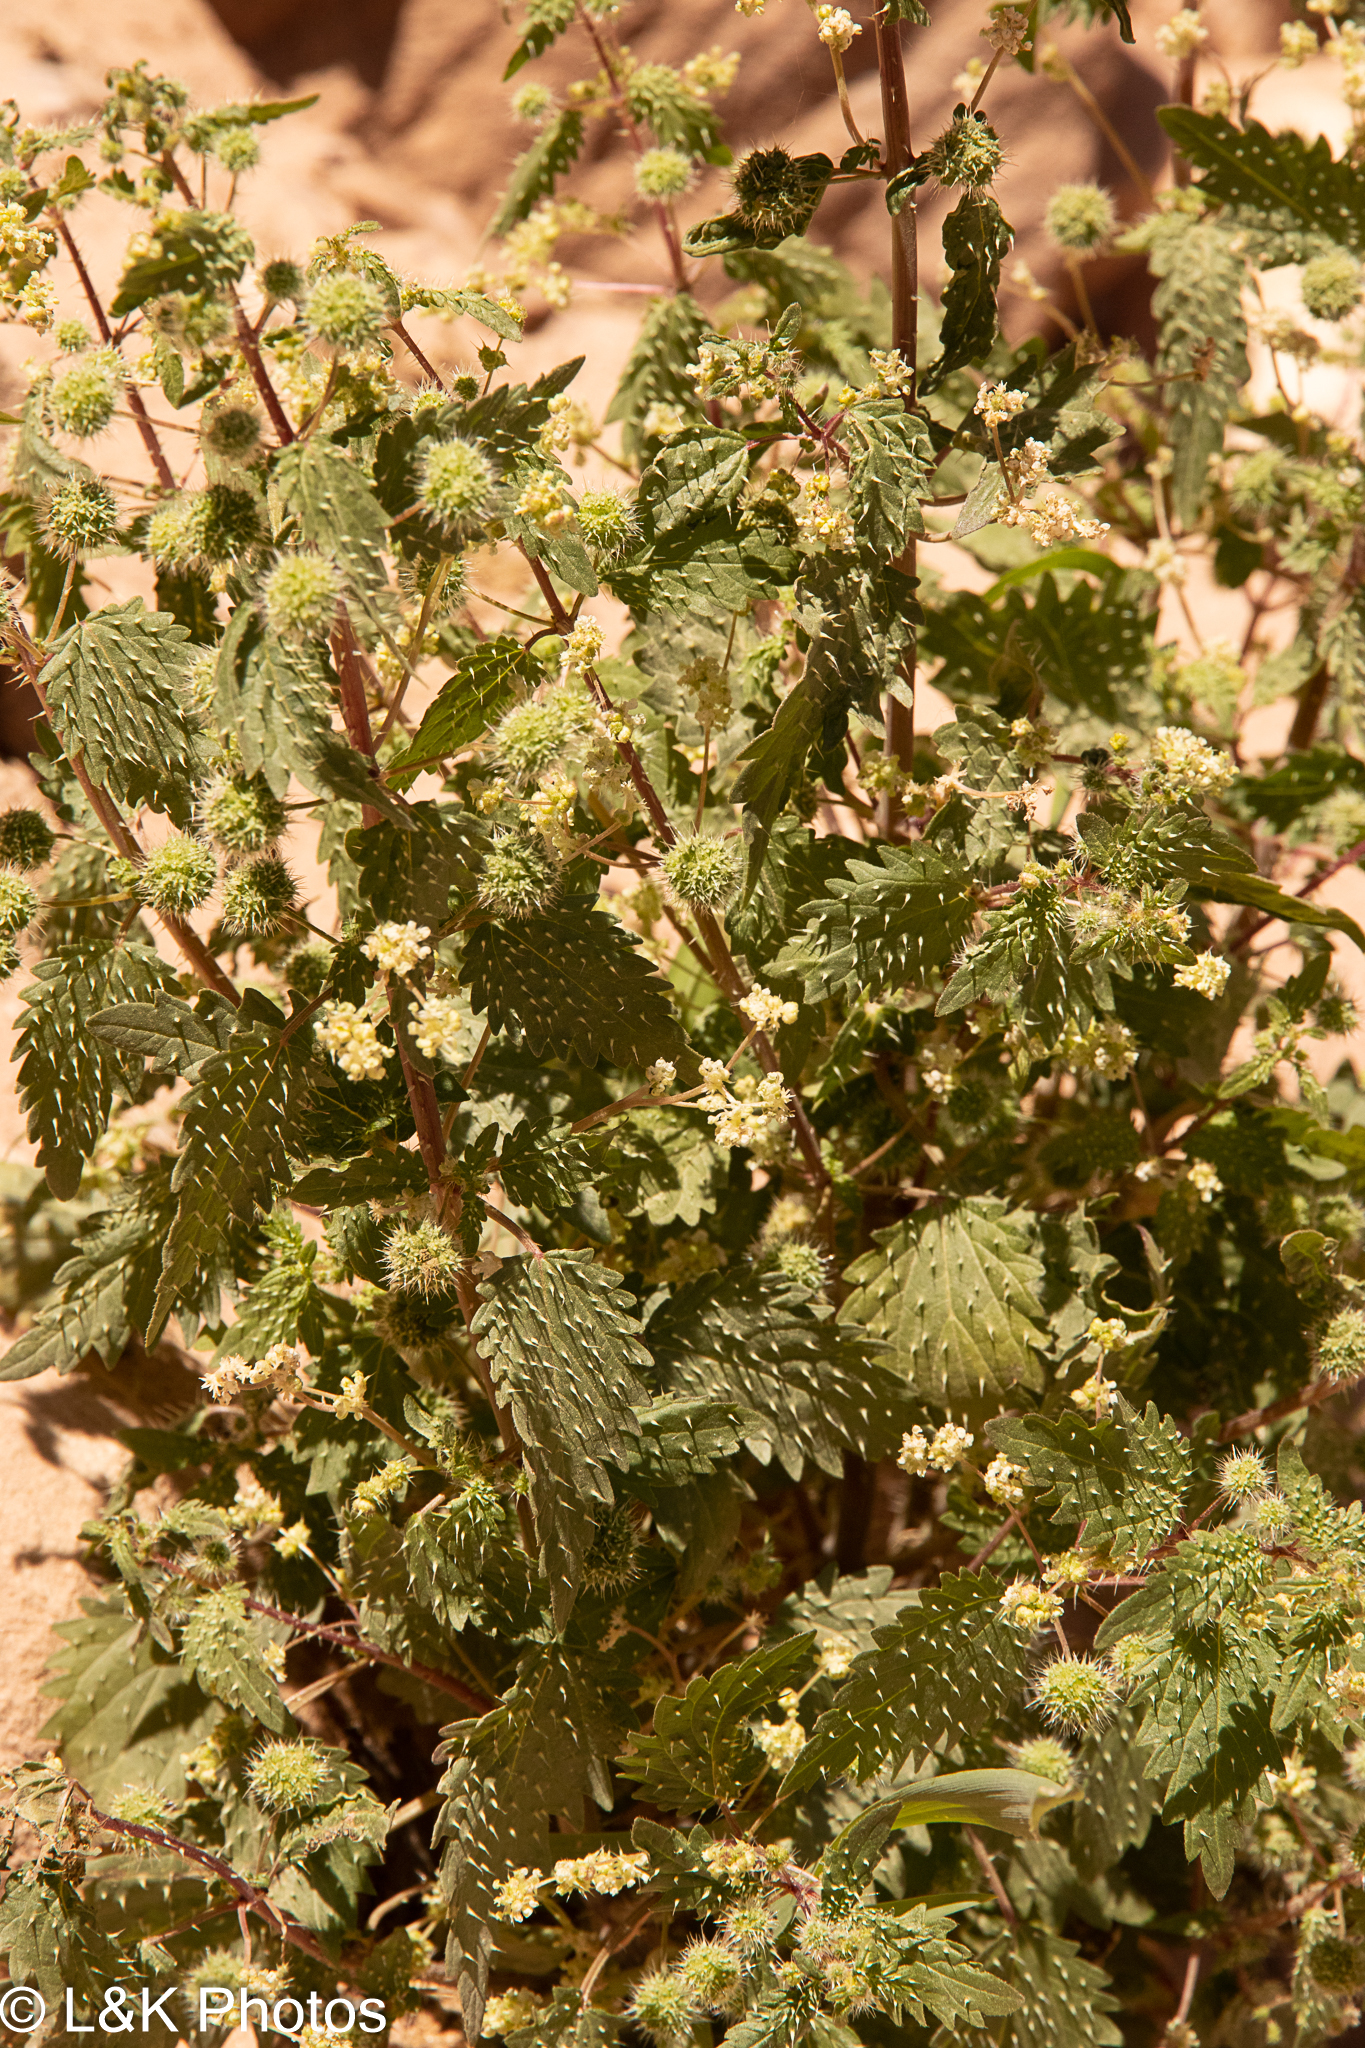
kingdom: Plantae
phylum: Tracheophyta
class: Magnoliopsida
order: Rosales
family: Urticaceae
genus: Urtica
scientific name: Urtica pilulifera
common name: Roman nettle
